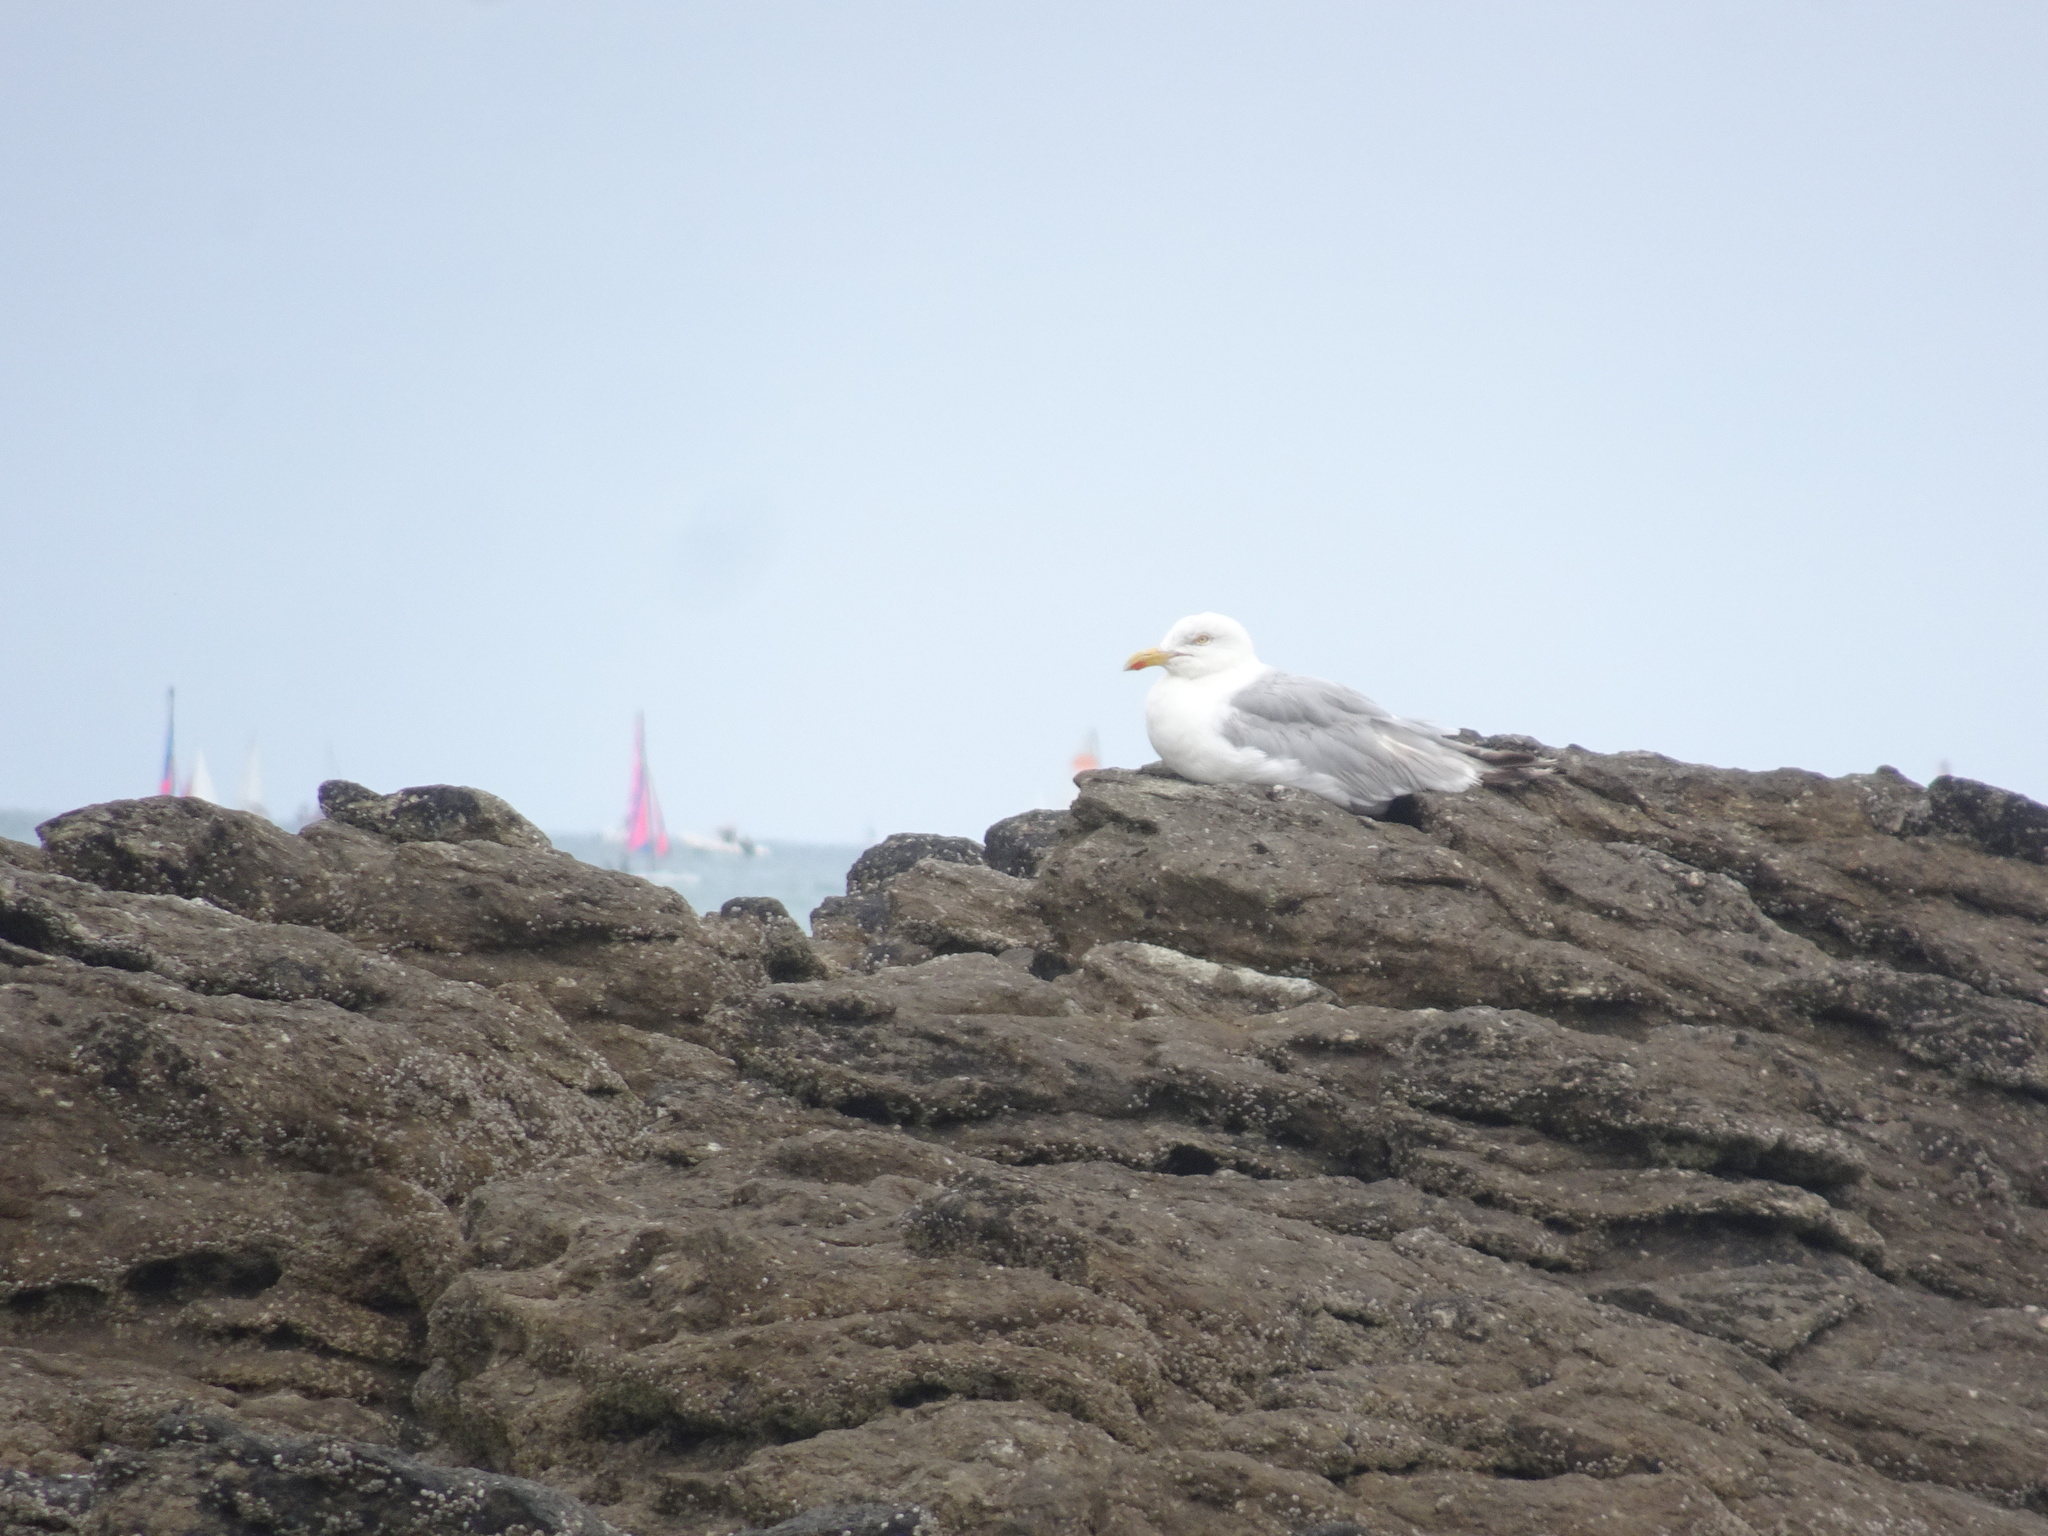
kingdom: Animalia
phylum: Chordata
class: Aves
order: Charadriiformes
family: Laridae
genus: Larus
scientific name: Larus argentatus
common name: Herring gull
